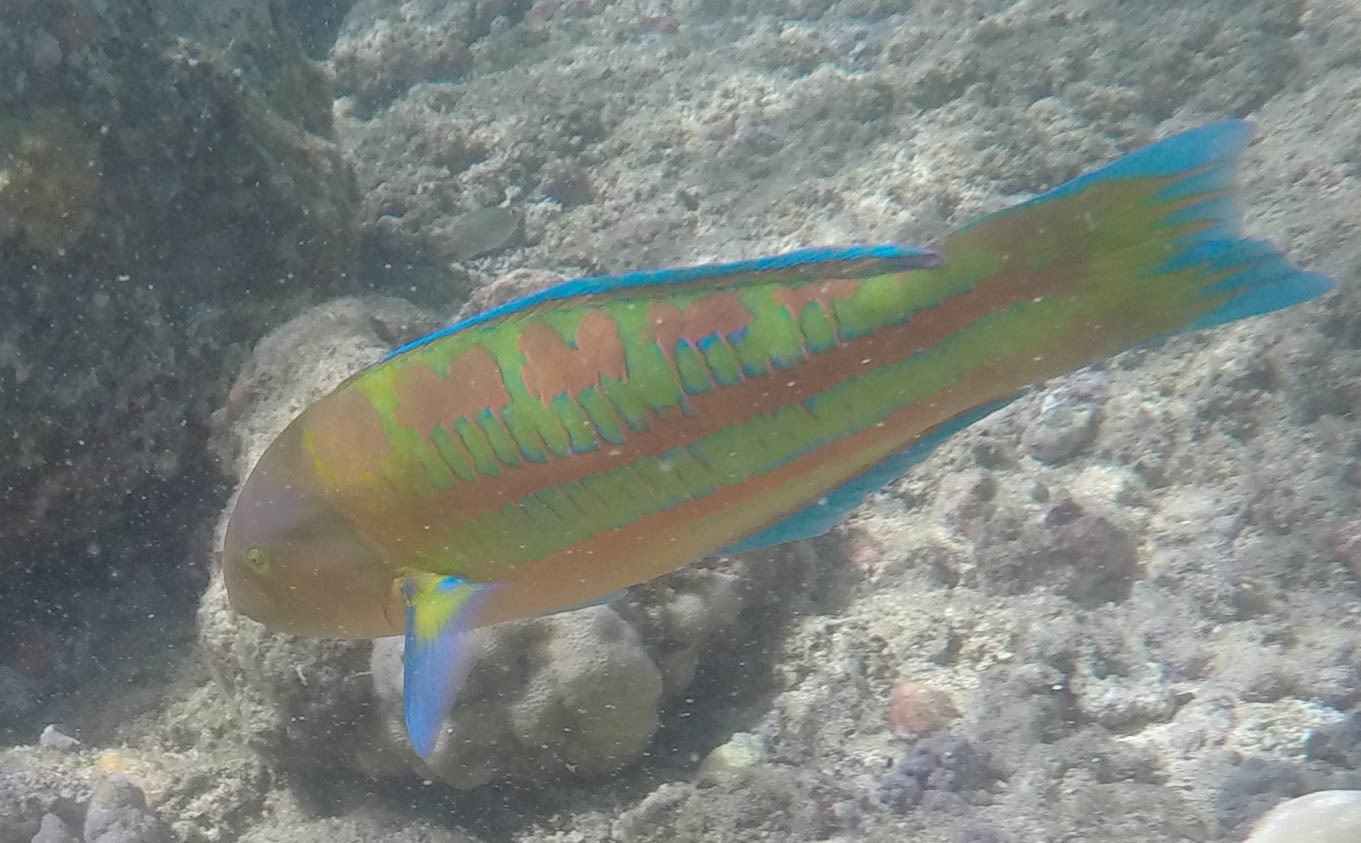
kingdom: Animalia
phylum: Chordata
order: Perciformes
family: Labridae
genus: Thalassoma
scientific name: Thalassoma trilobatum
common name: Christmas wrasse
